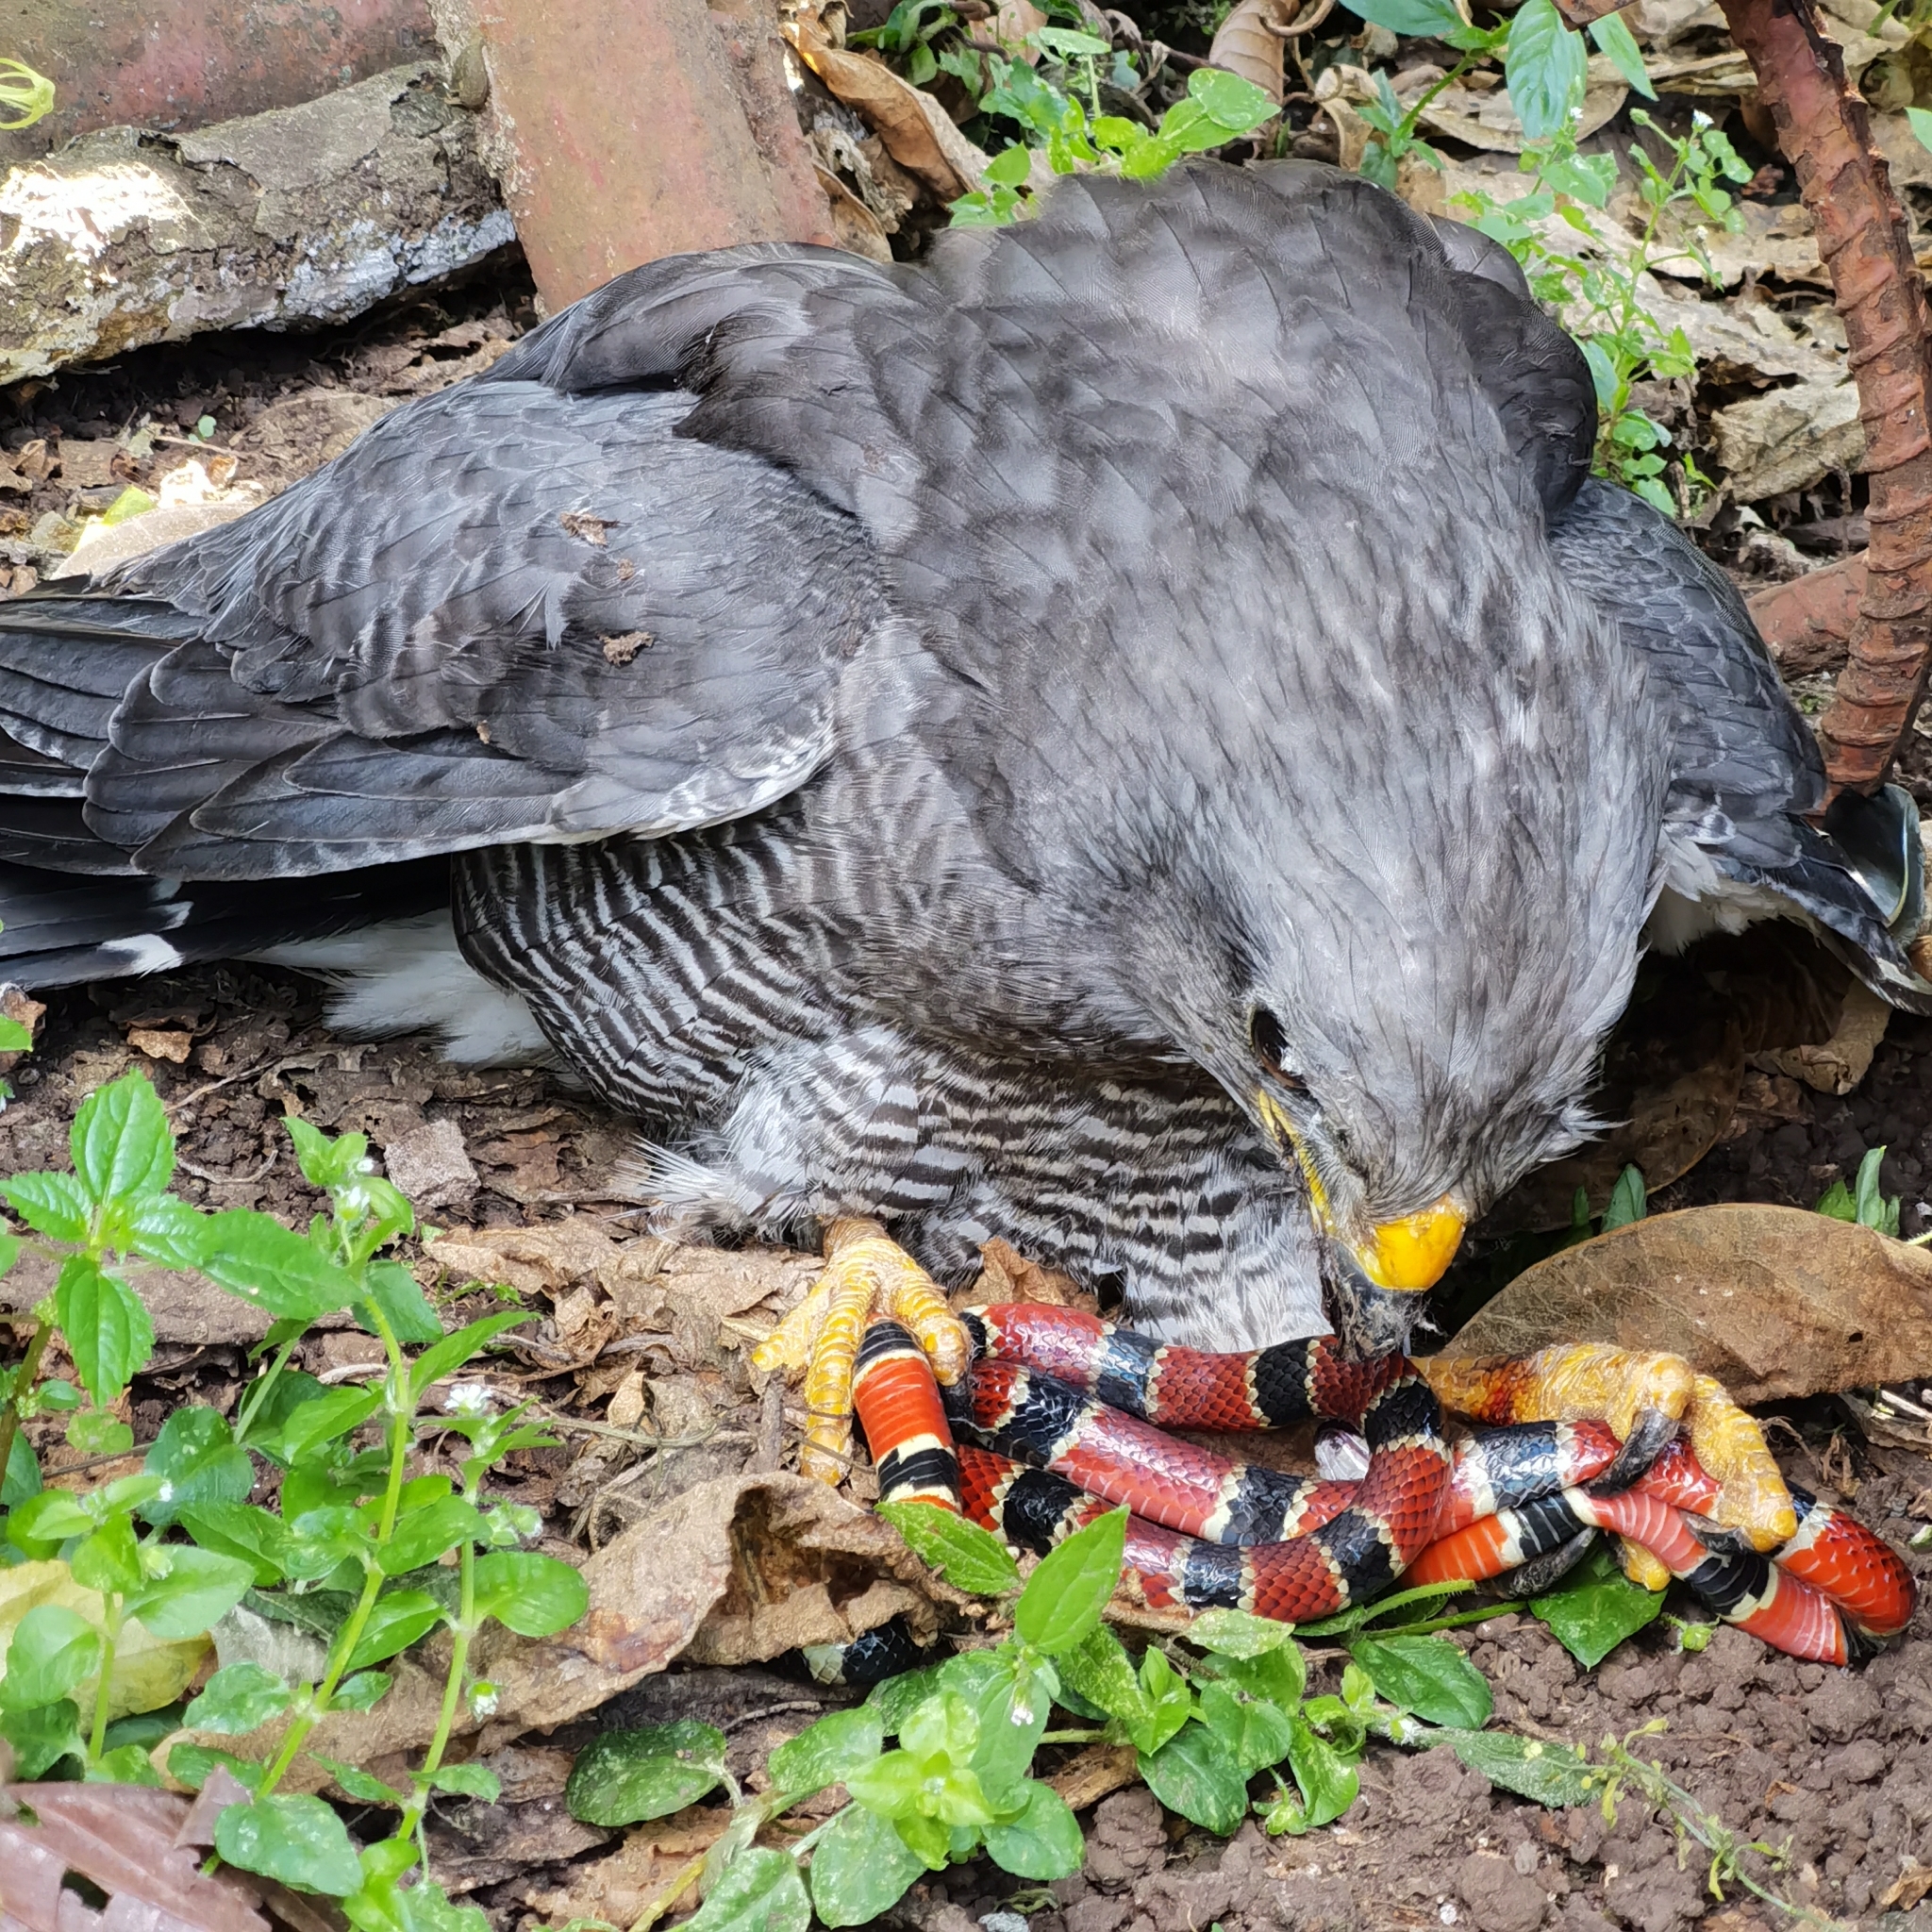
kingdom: Animalia
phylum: Chordata
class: Aves
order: Accipitriformes
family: Accipitridae
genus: Buteo
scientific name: Buteo nitidus
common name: Grey-lined hawk
